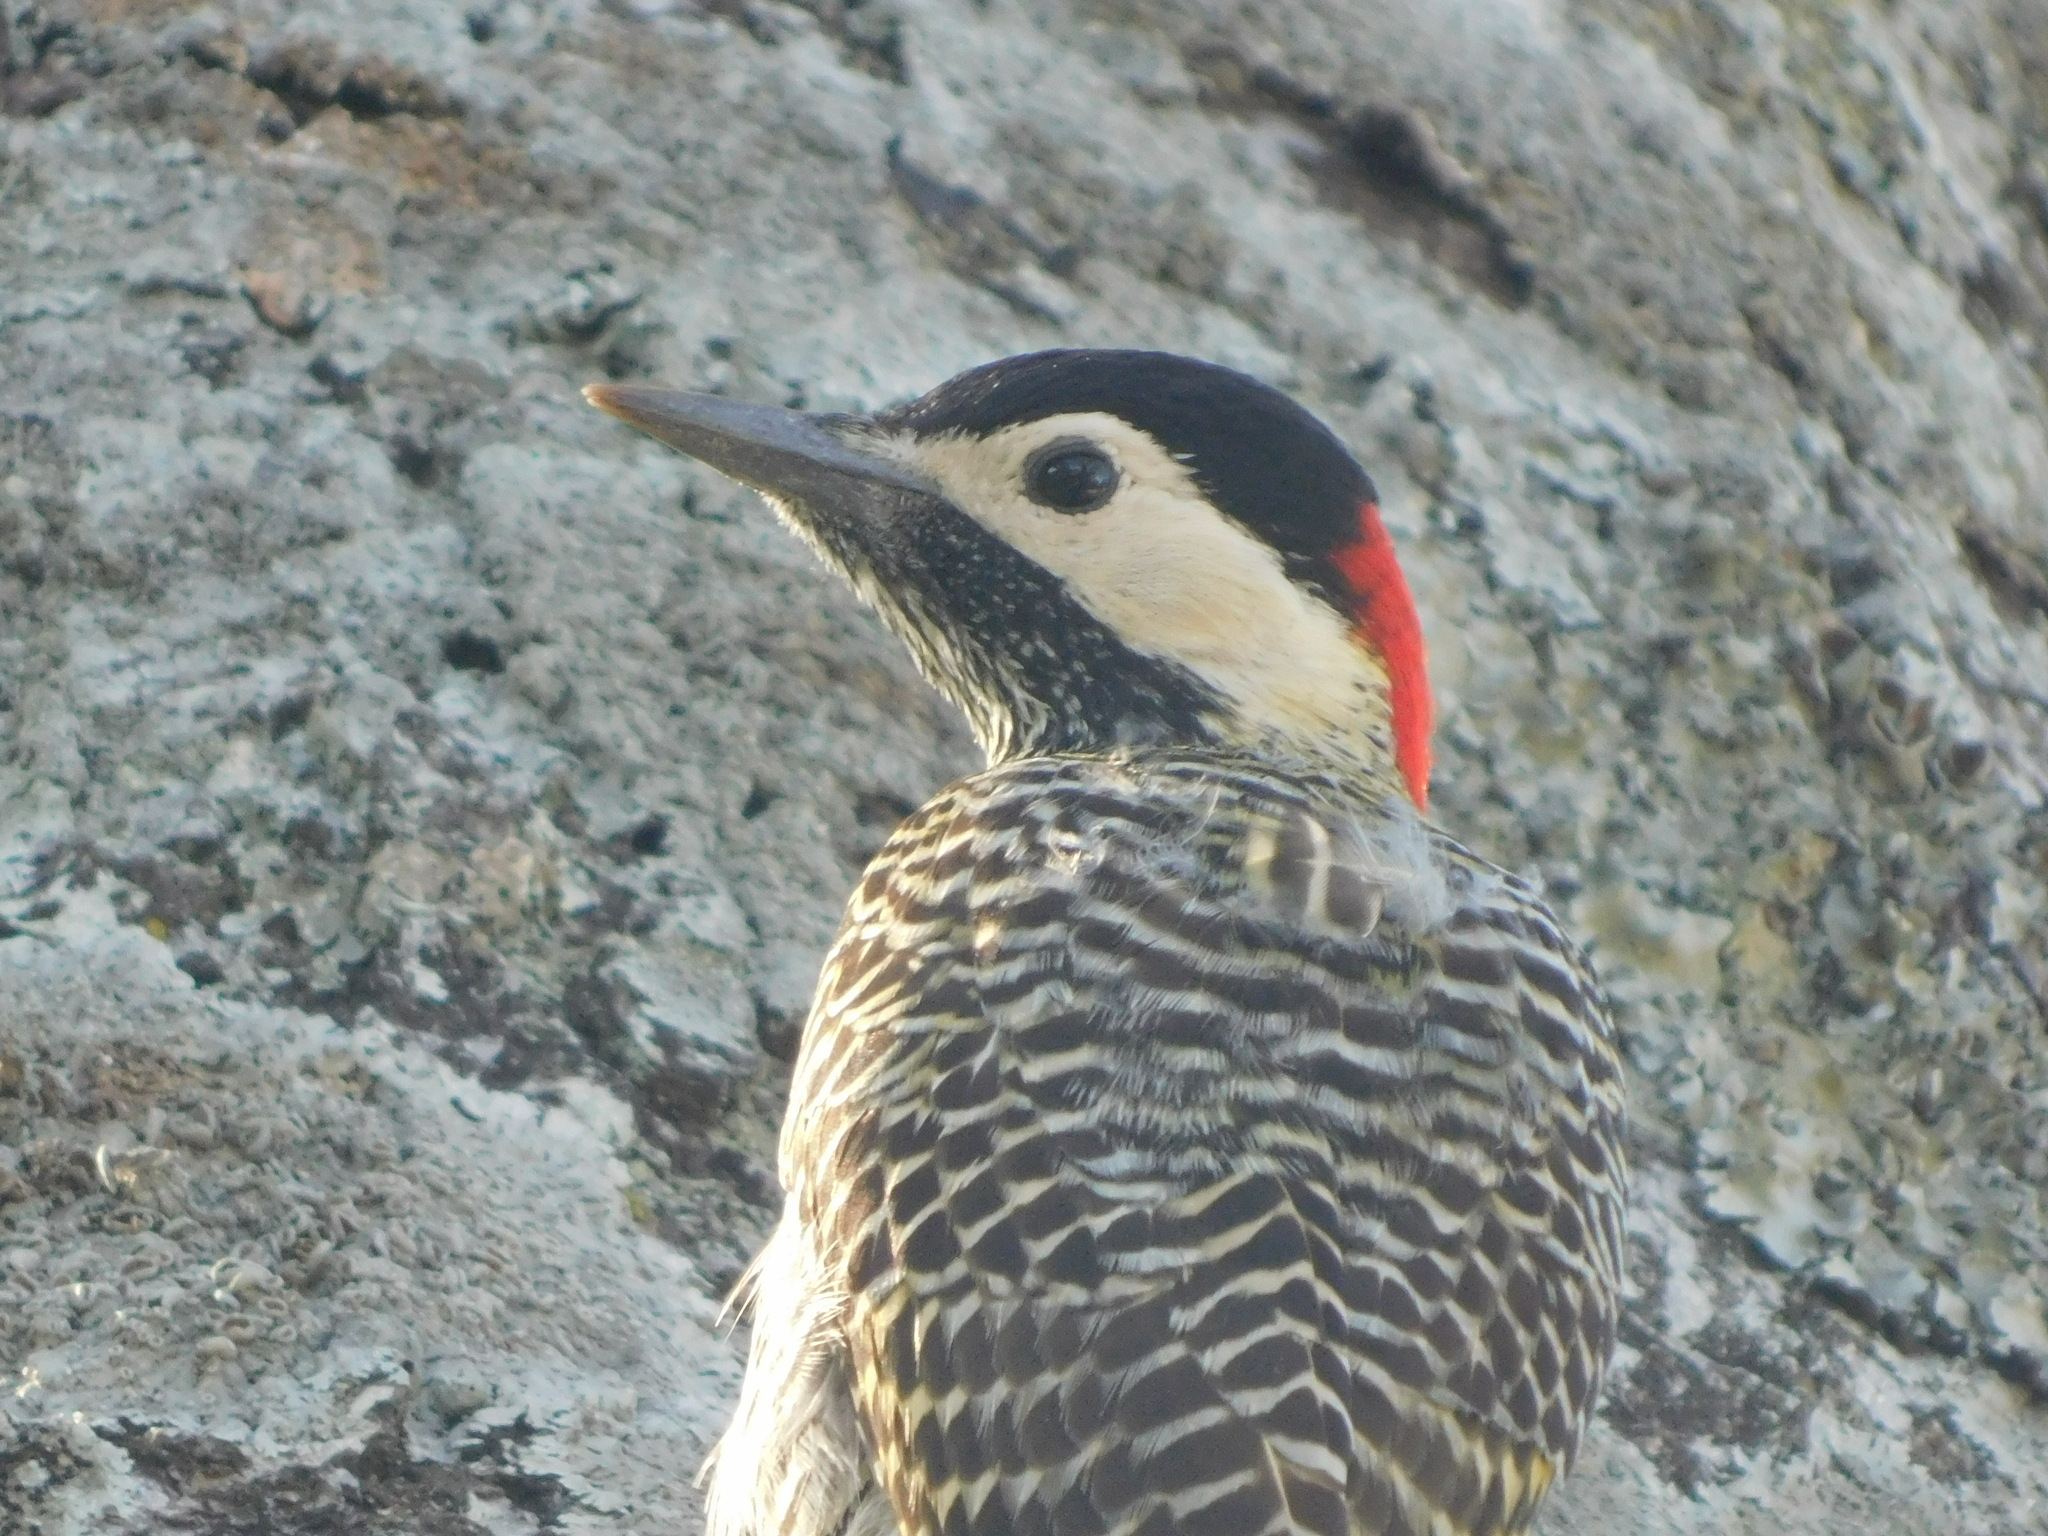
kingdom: Animalia
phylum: Chordata
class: Aves
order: Piciformes
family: Picidae
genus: Colaptes
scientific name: Colaptes melanochloros
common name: Green-barred woodpecker
